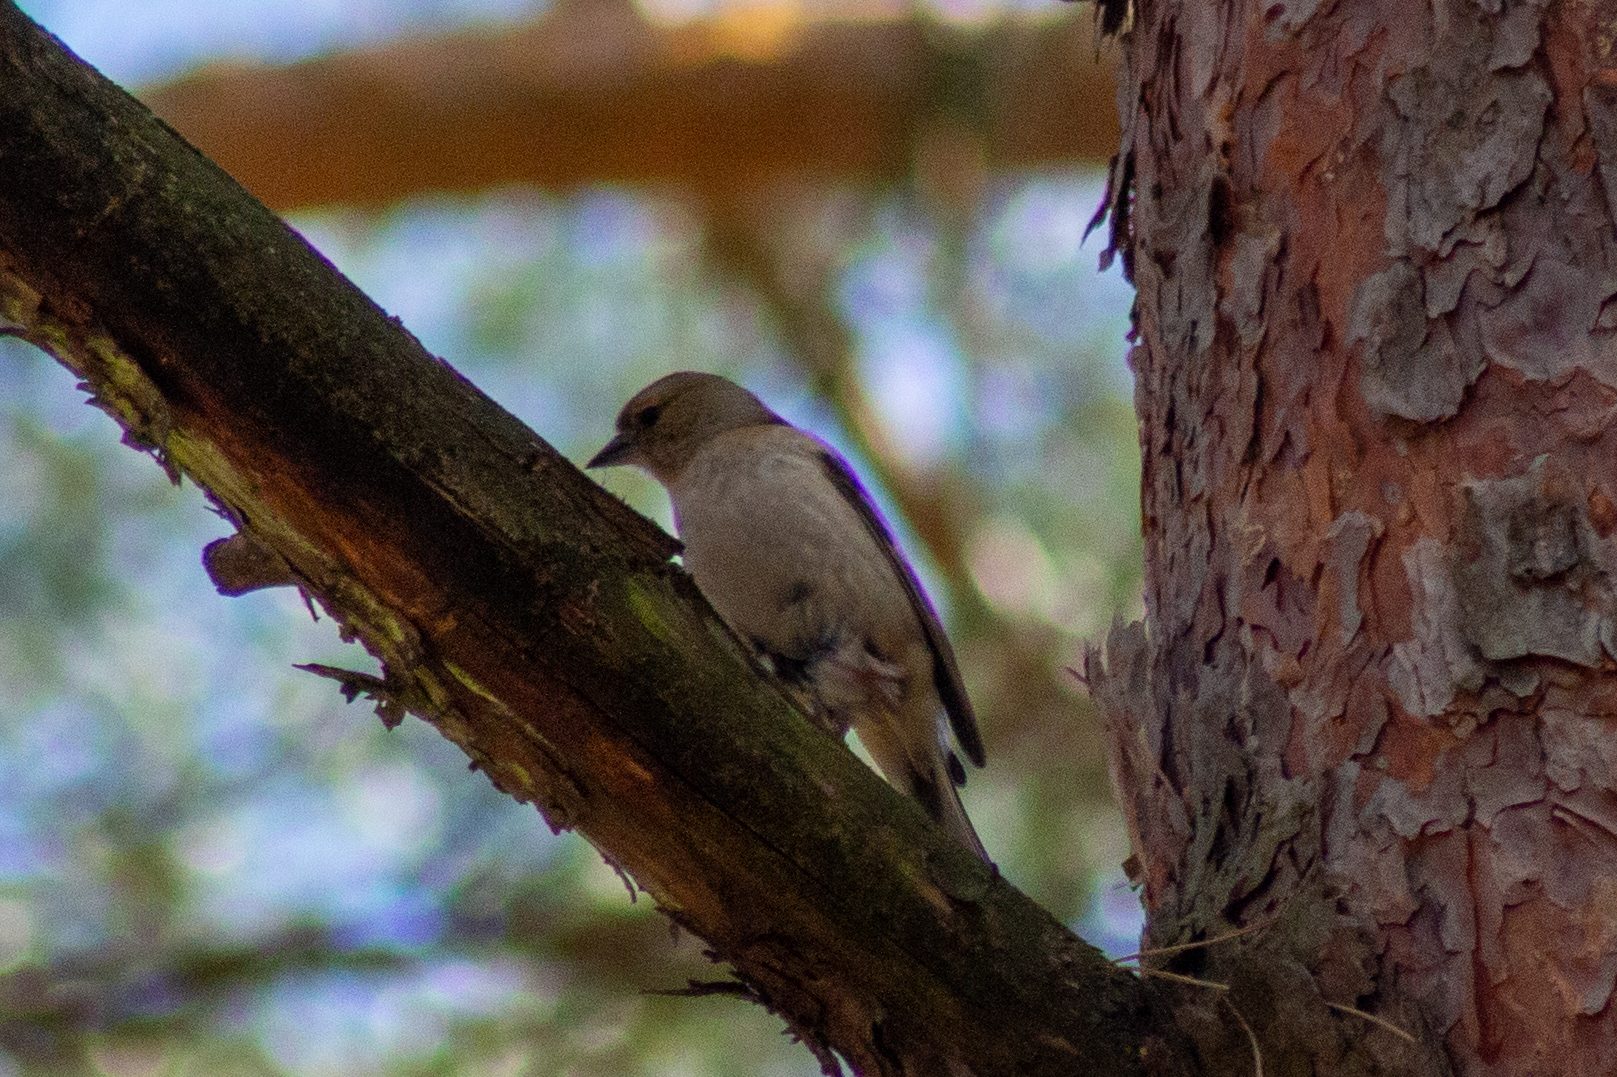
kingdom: Animalia
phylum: Chordata
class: Aves
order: Passeriformes
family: Fringillidae
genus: Fringilla
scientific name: Fringilla coelebs
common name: Common chaffinch
